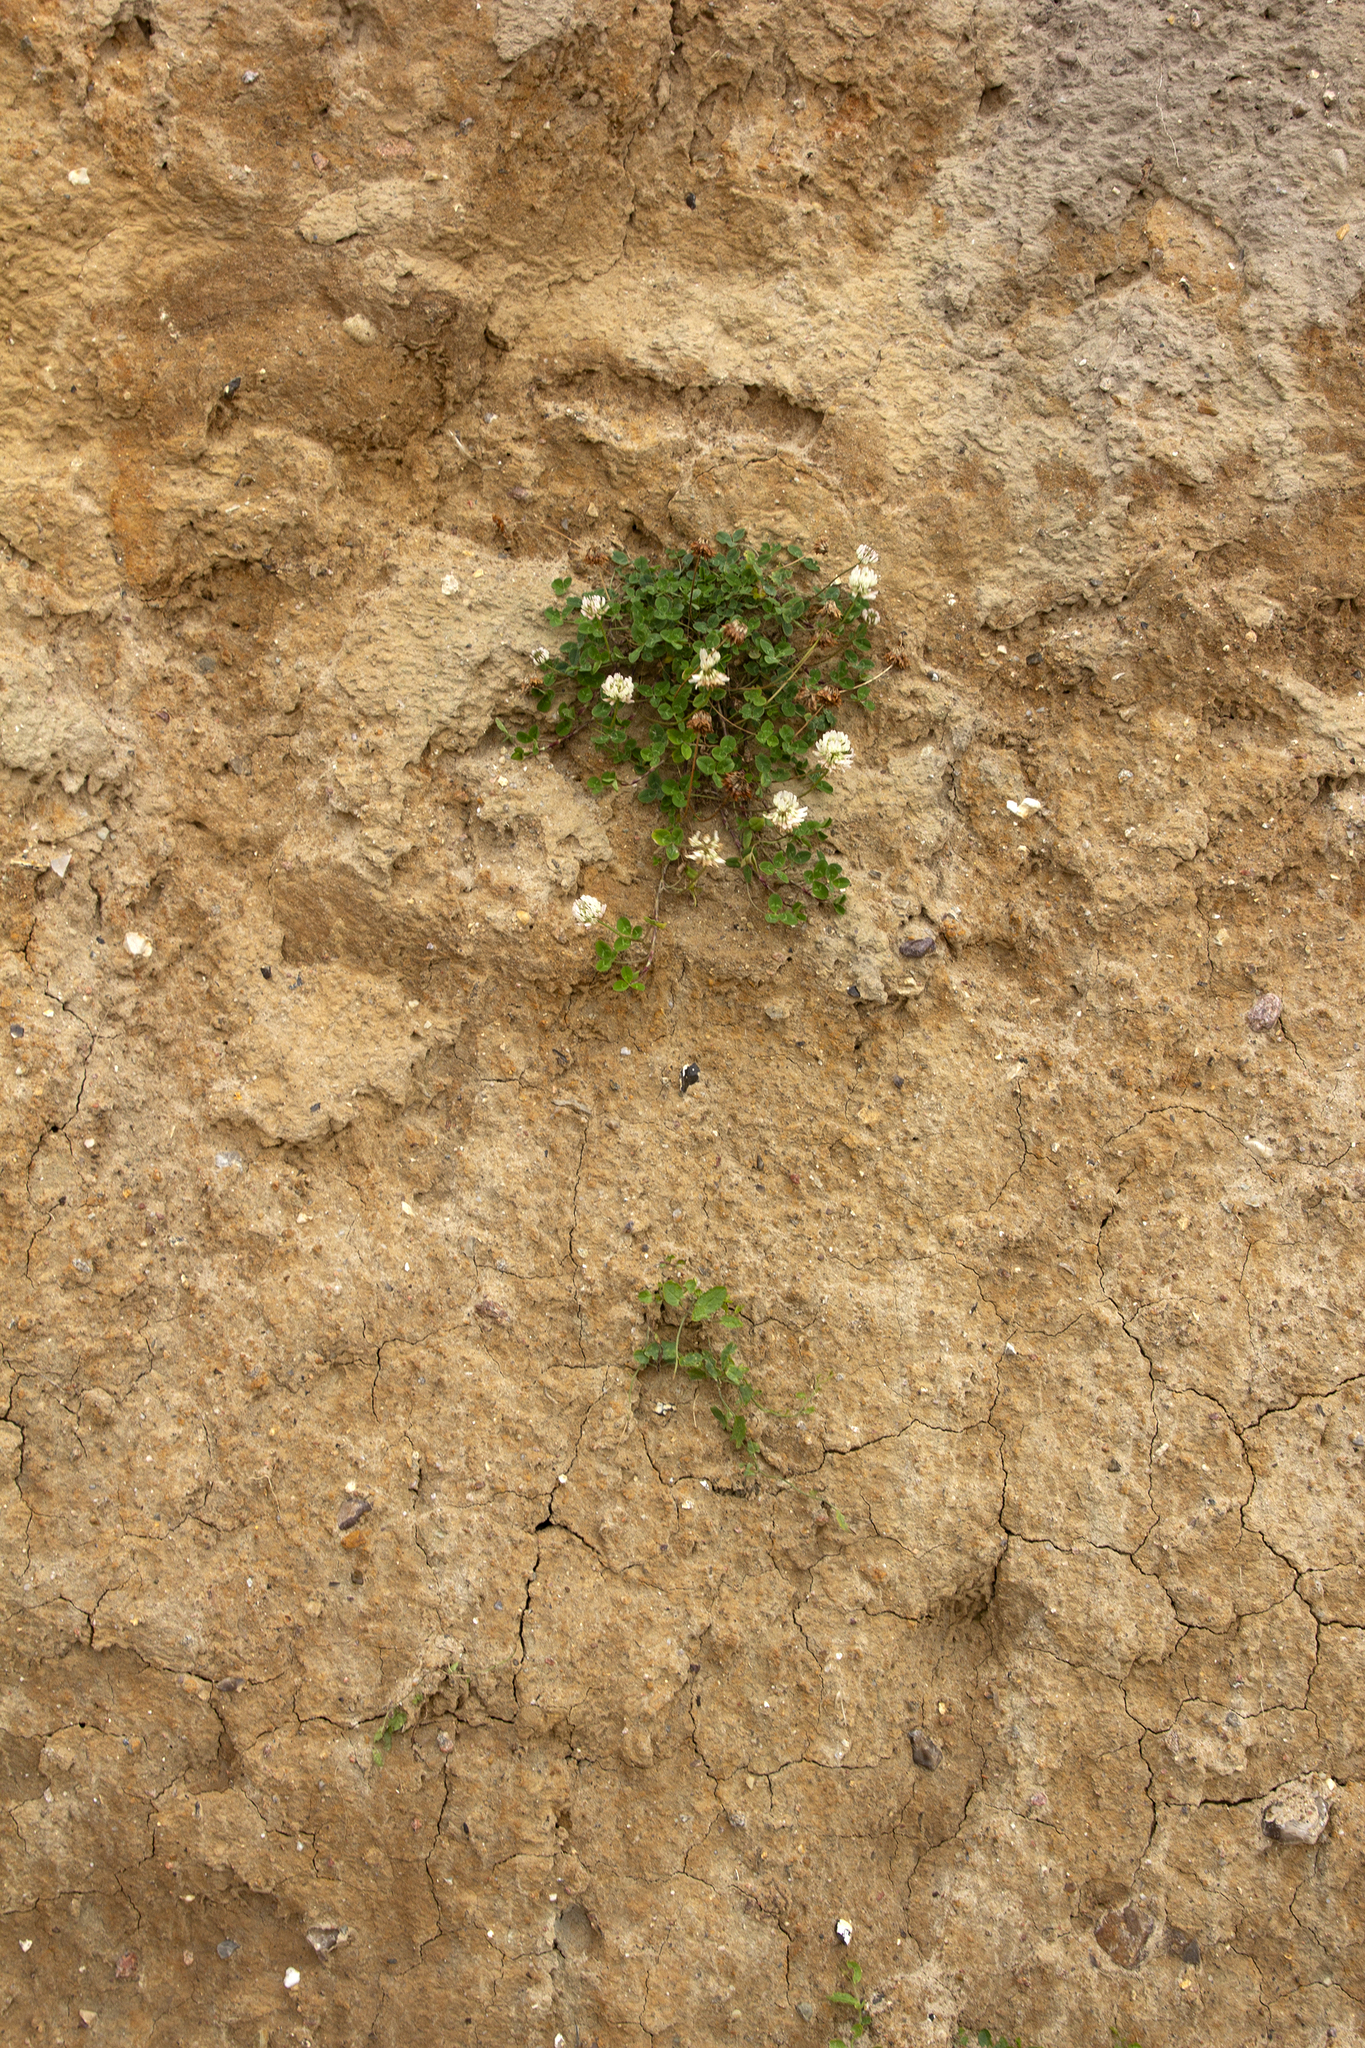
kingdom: Plantae
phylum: Tracheophyta
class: Magnoliopsida
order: Fabales
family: Fabaceae
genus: Trifolium
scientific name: Trifolium repens
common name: White clover
